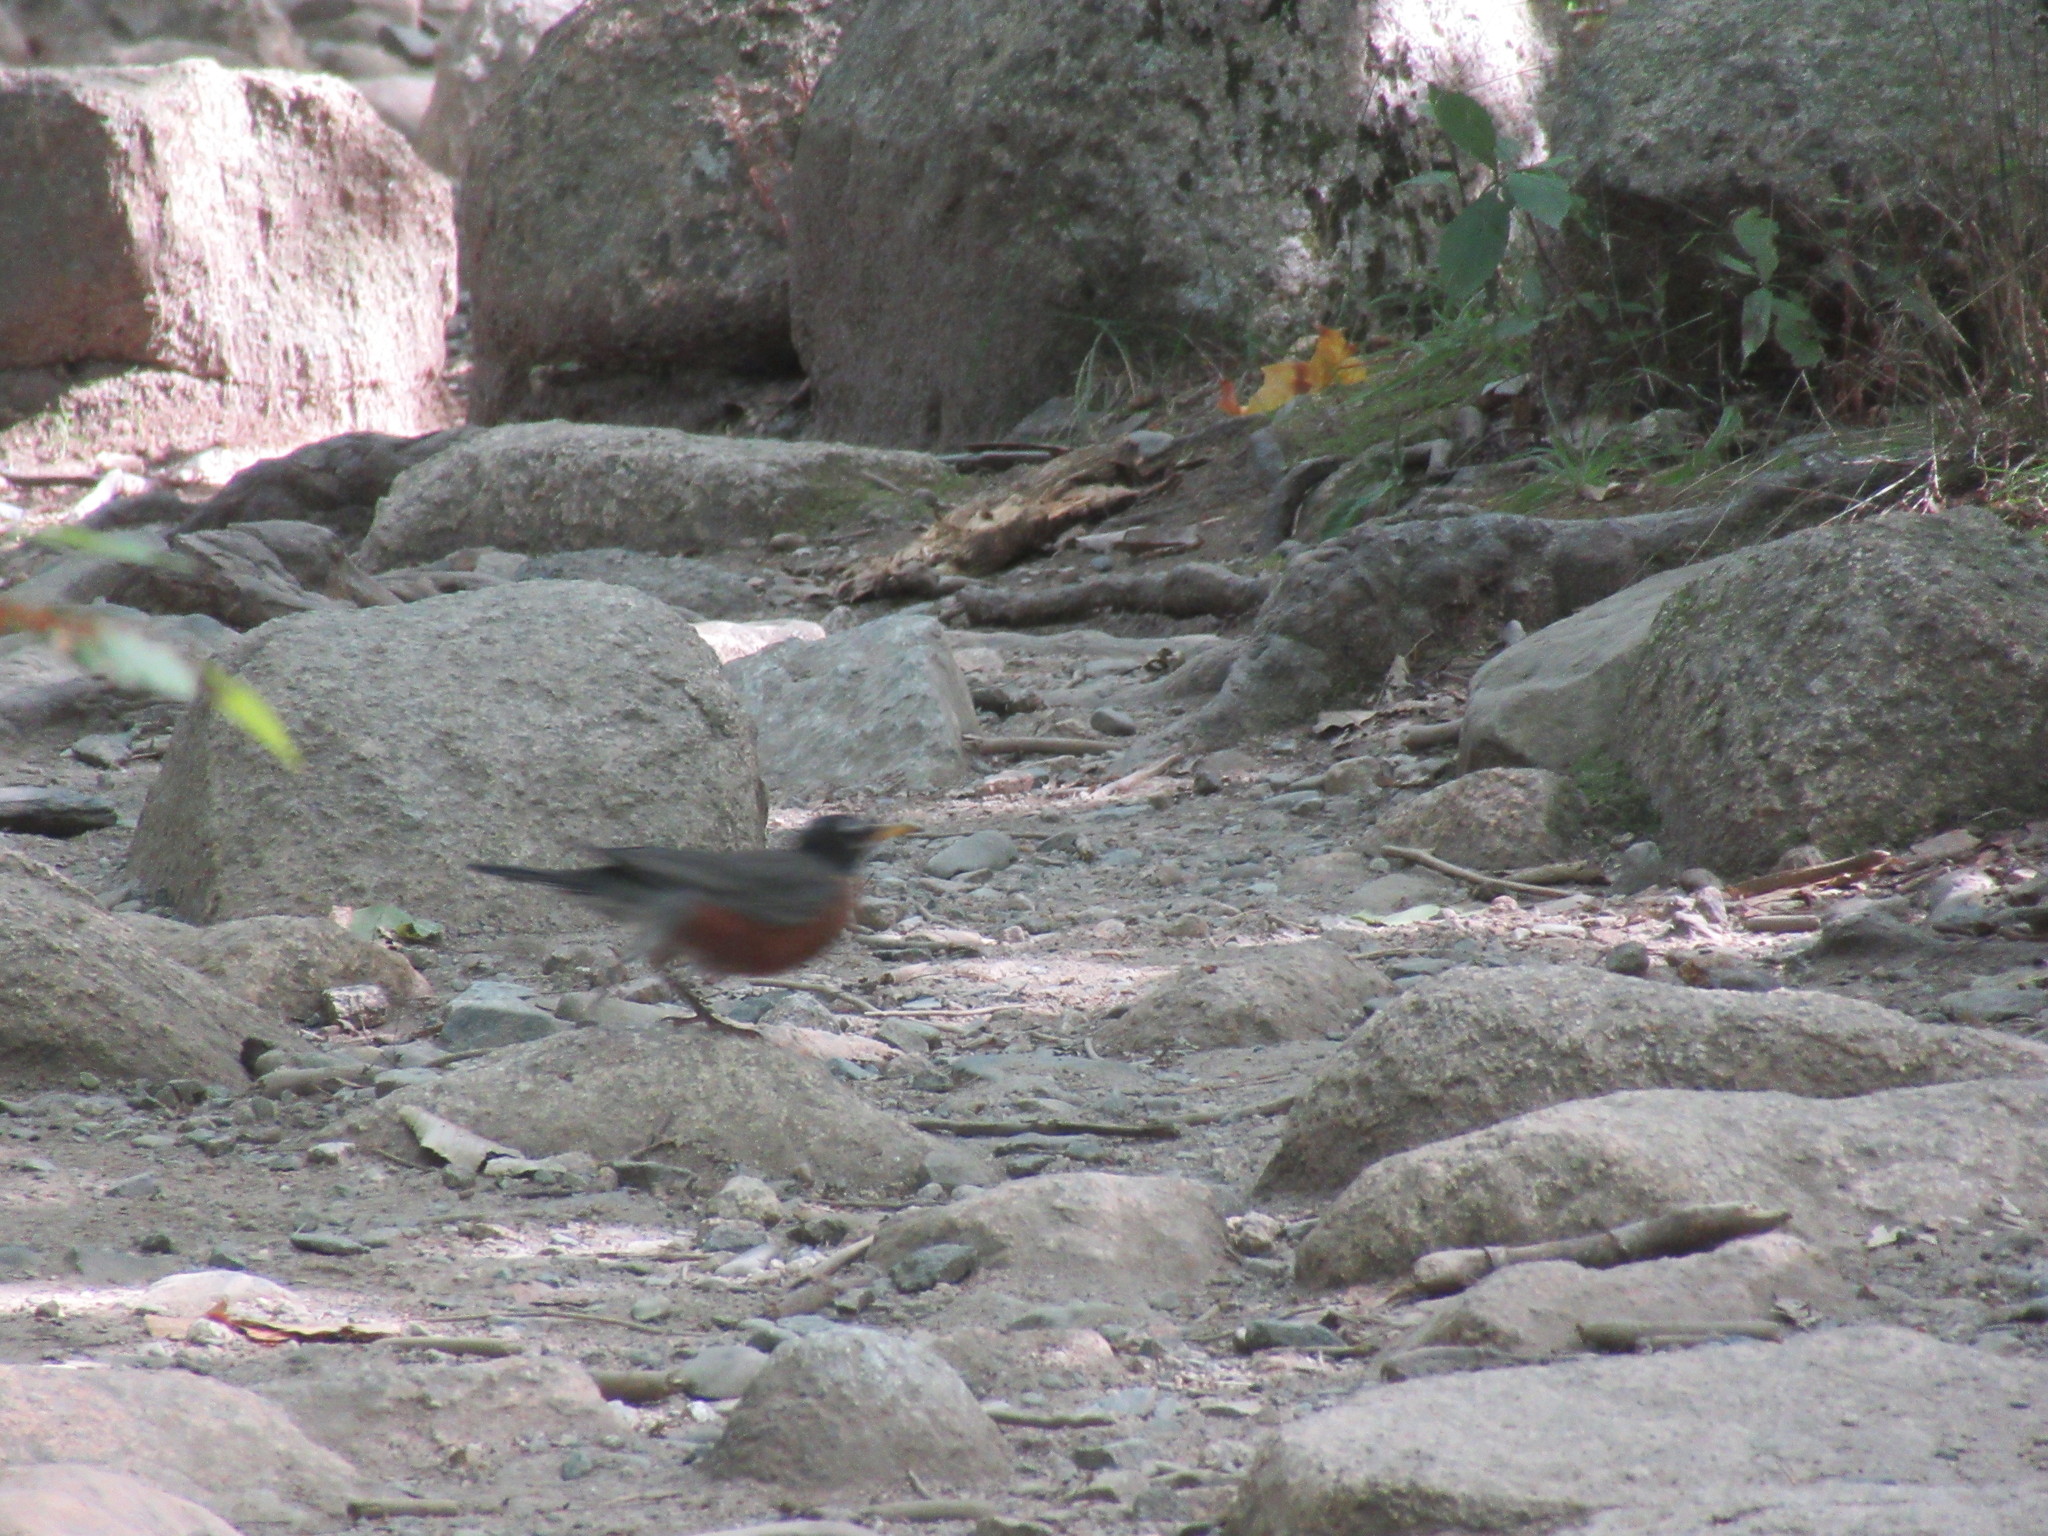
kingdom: Animalia
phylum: Chordata
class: Aves
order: Passeriformes
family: Turdidae
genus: Turdus
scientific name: Turdus migratorius
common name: American robin
